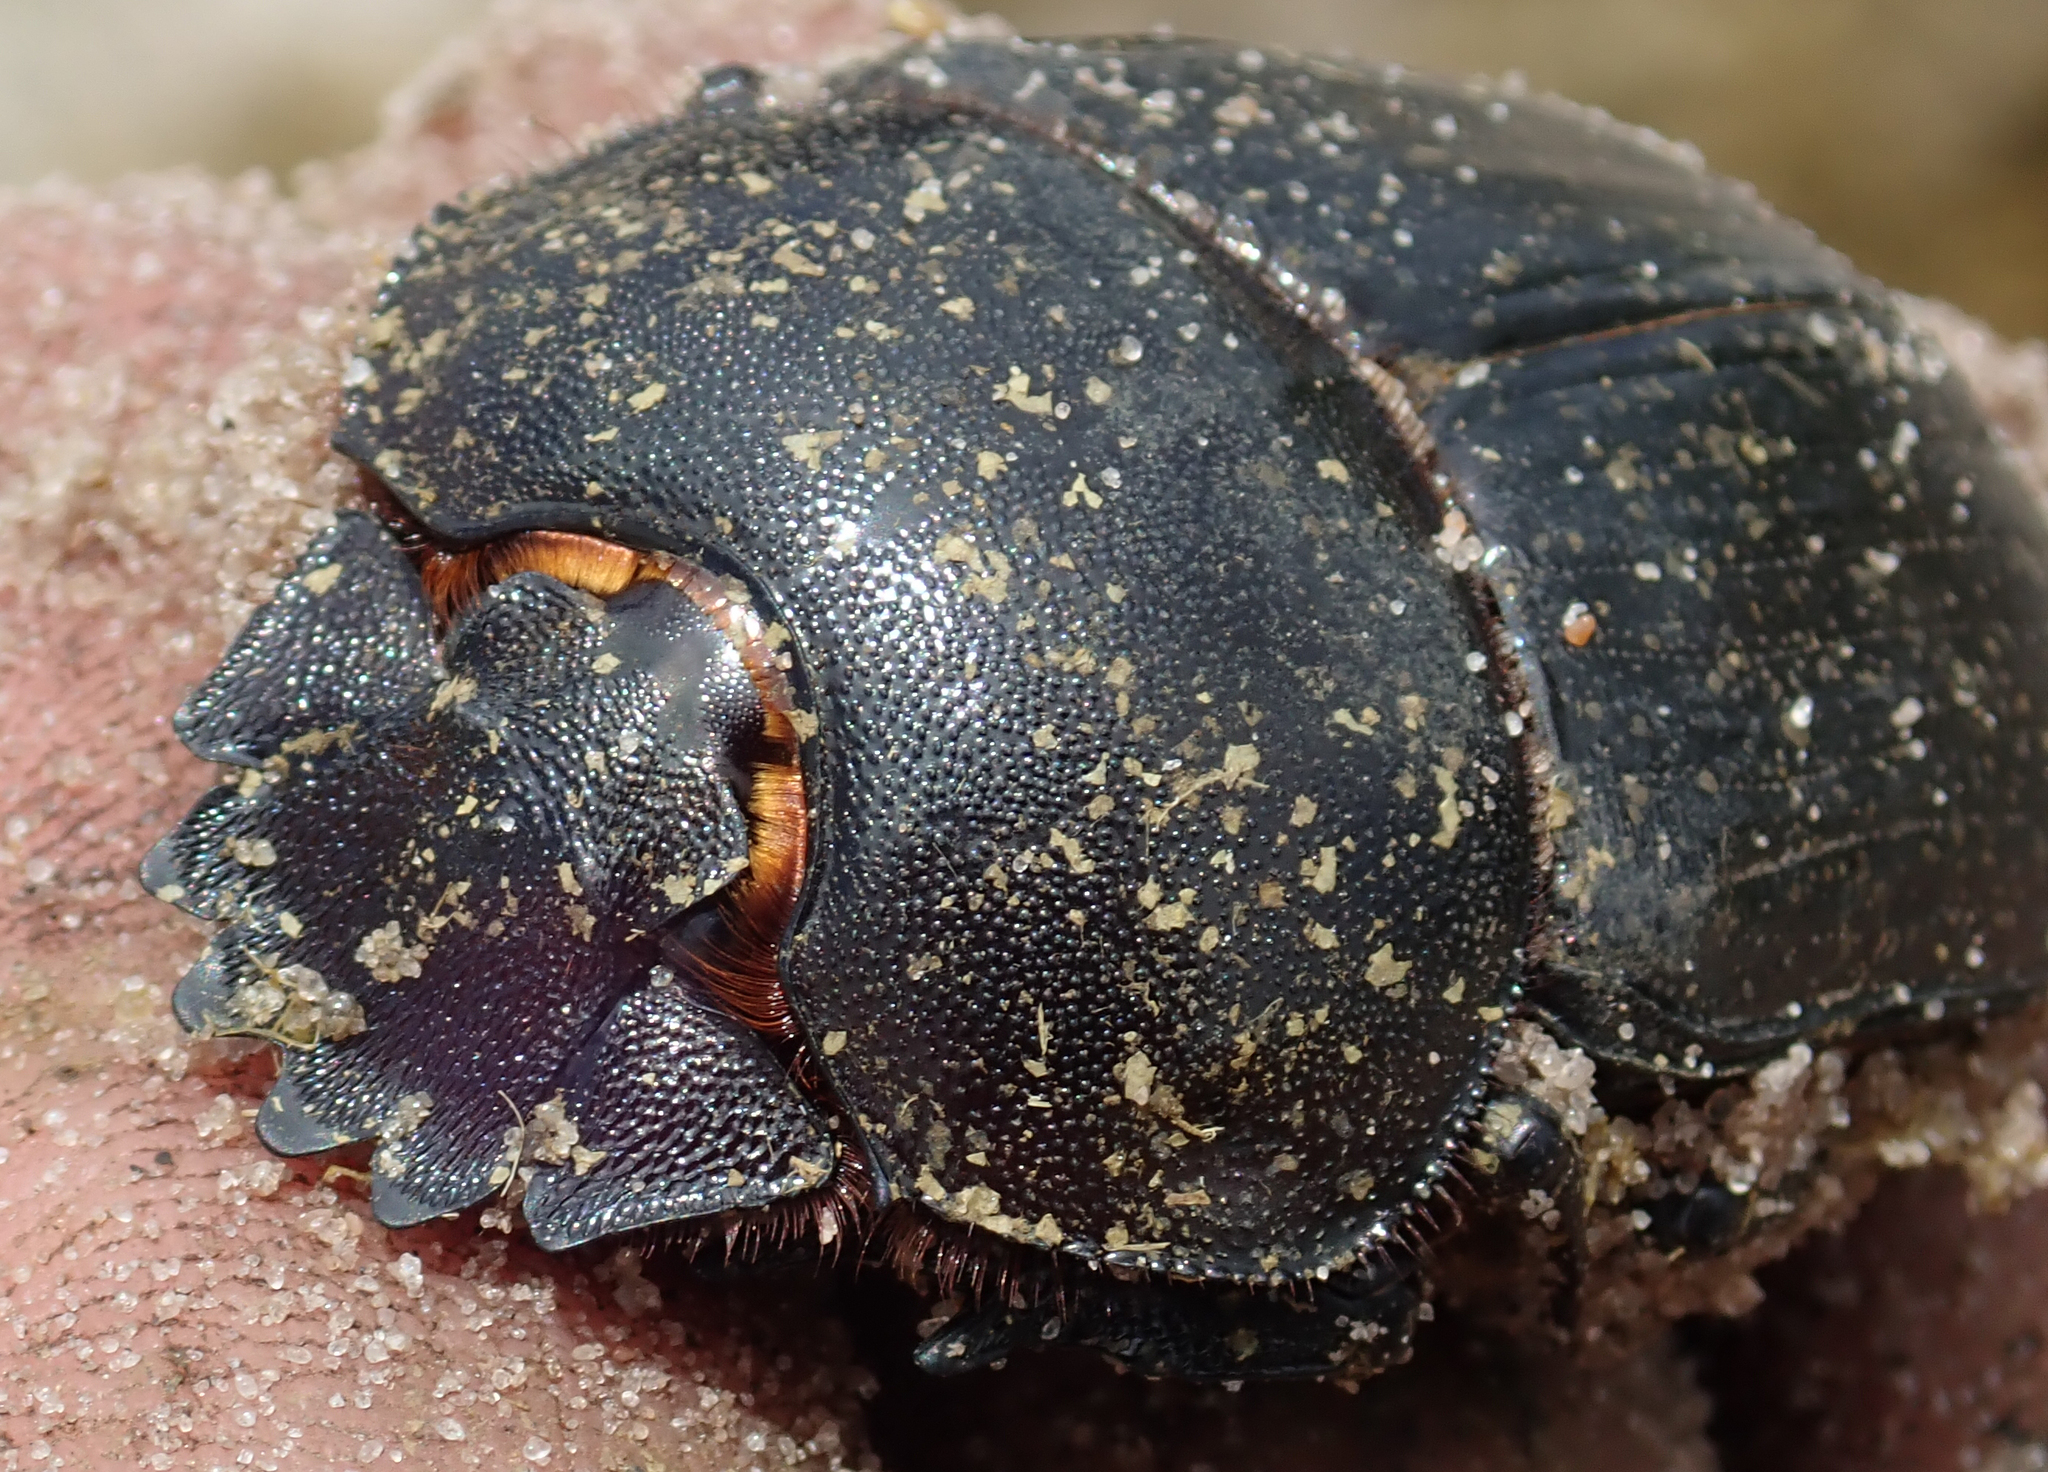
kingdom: Animalia
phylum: Arthropoda
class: Insecta
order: Coleoptera
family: Scarabaeidae
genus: Kheper
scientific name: Kheper prodigiosus
